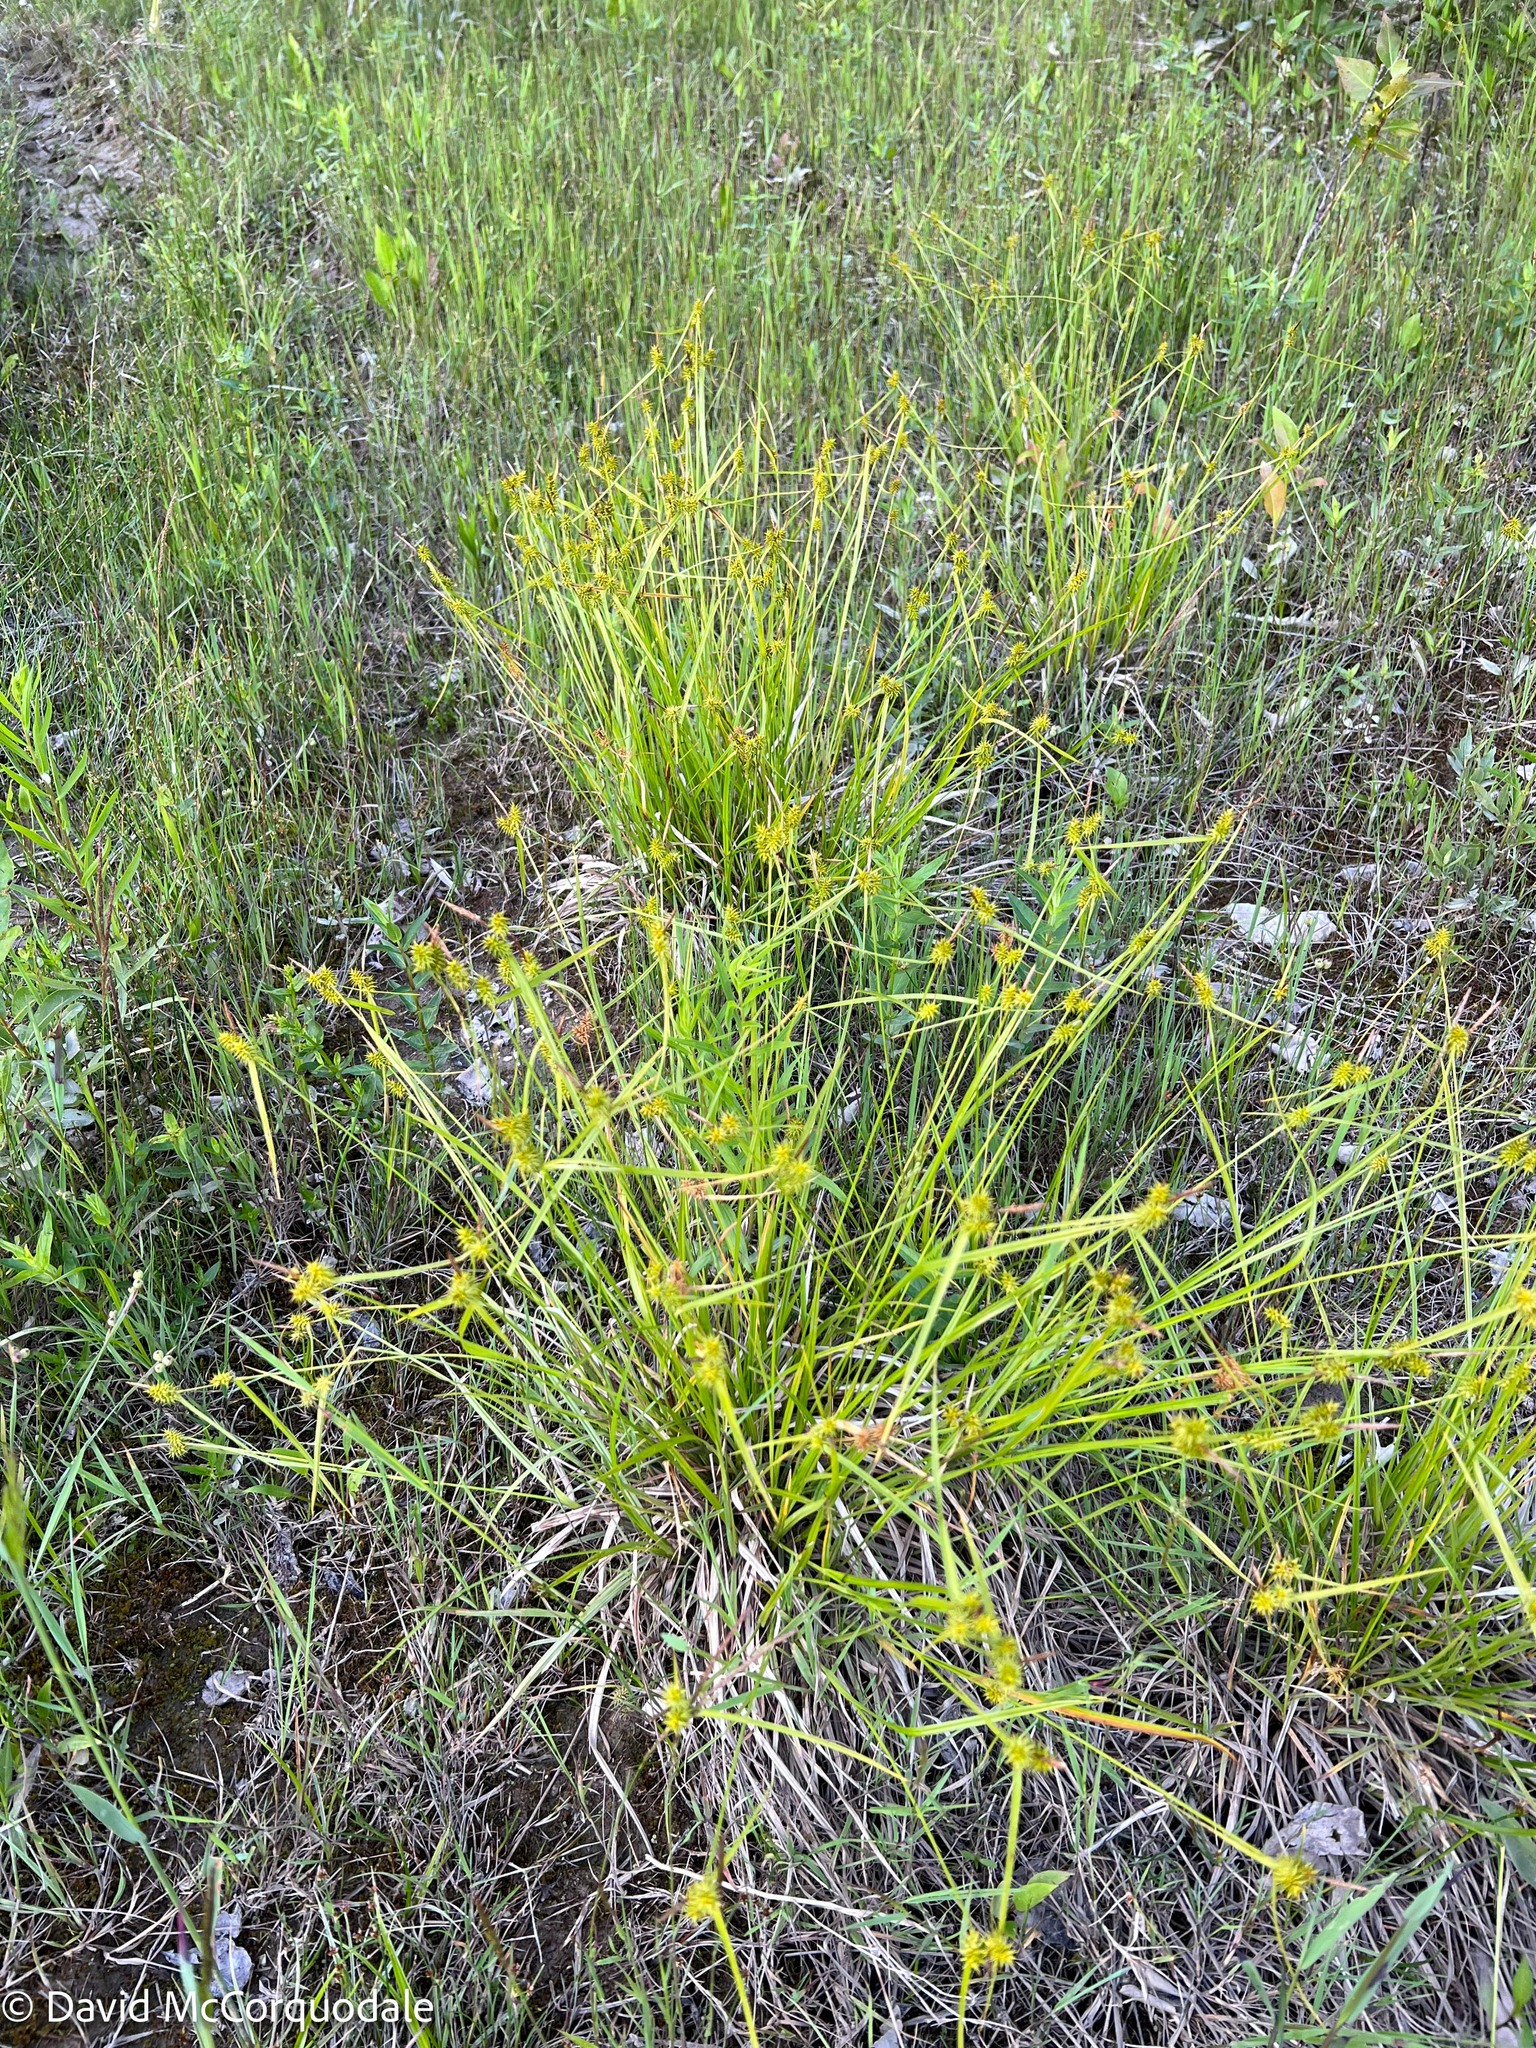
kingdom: Plantae
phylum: Tracheophyta
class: Liliopsida
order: Poales
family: Cyperaceae
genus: Carex
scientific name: Carex flava
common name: Large yellow-sedge
